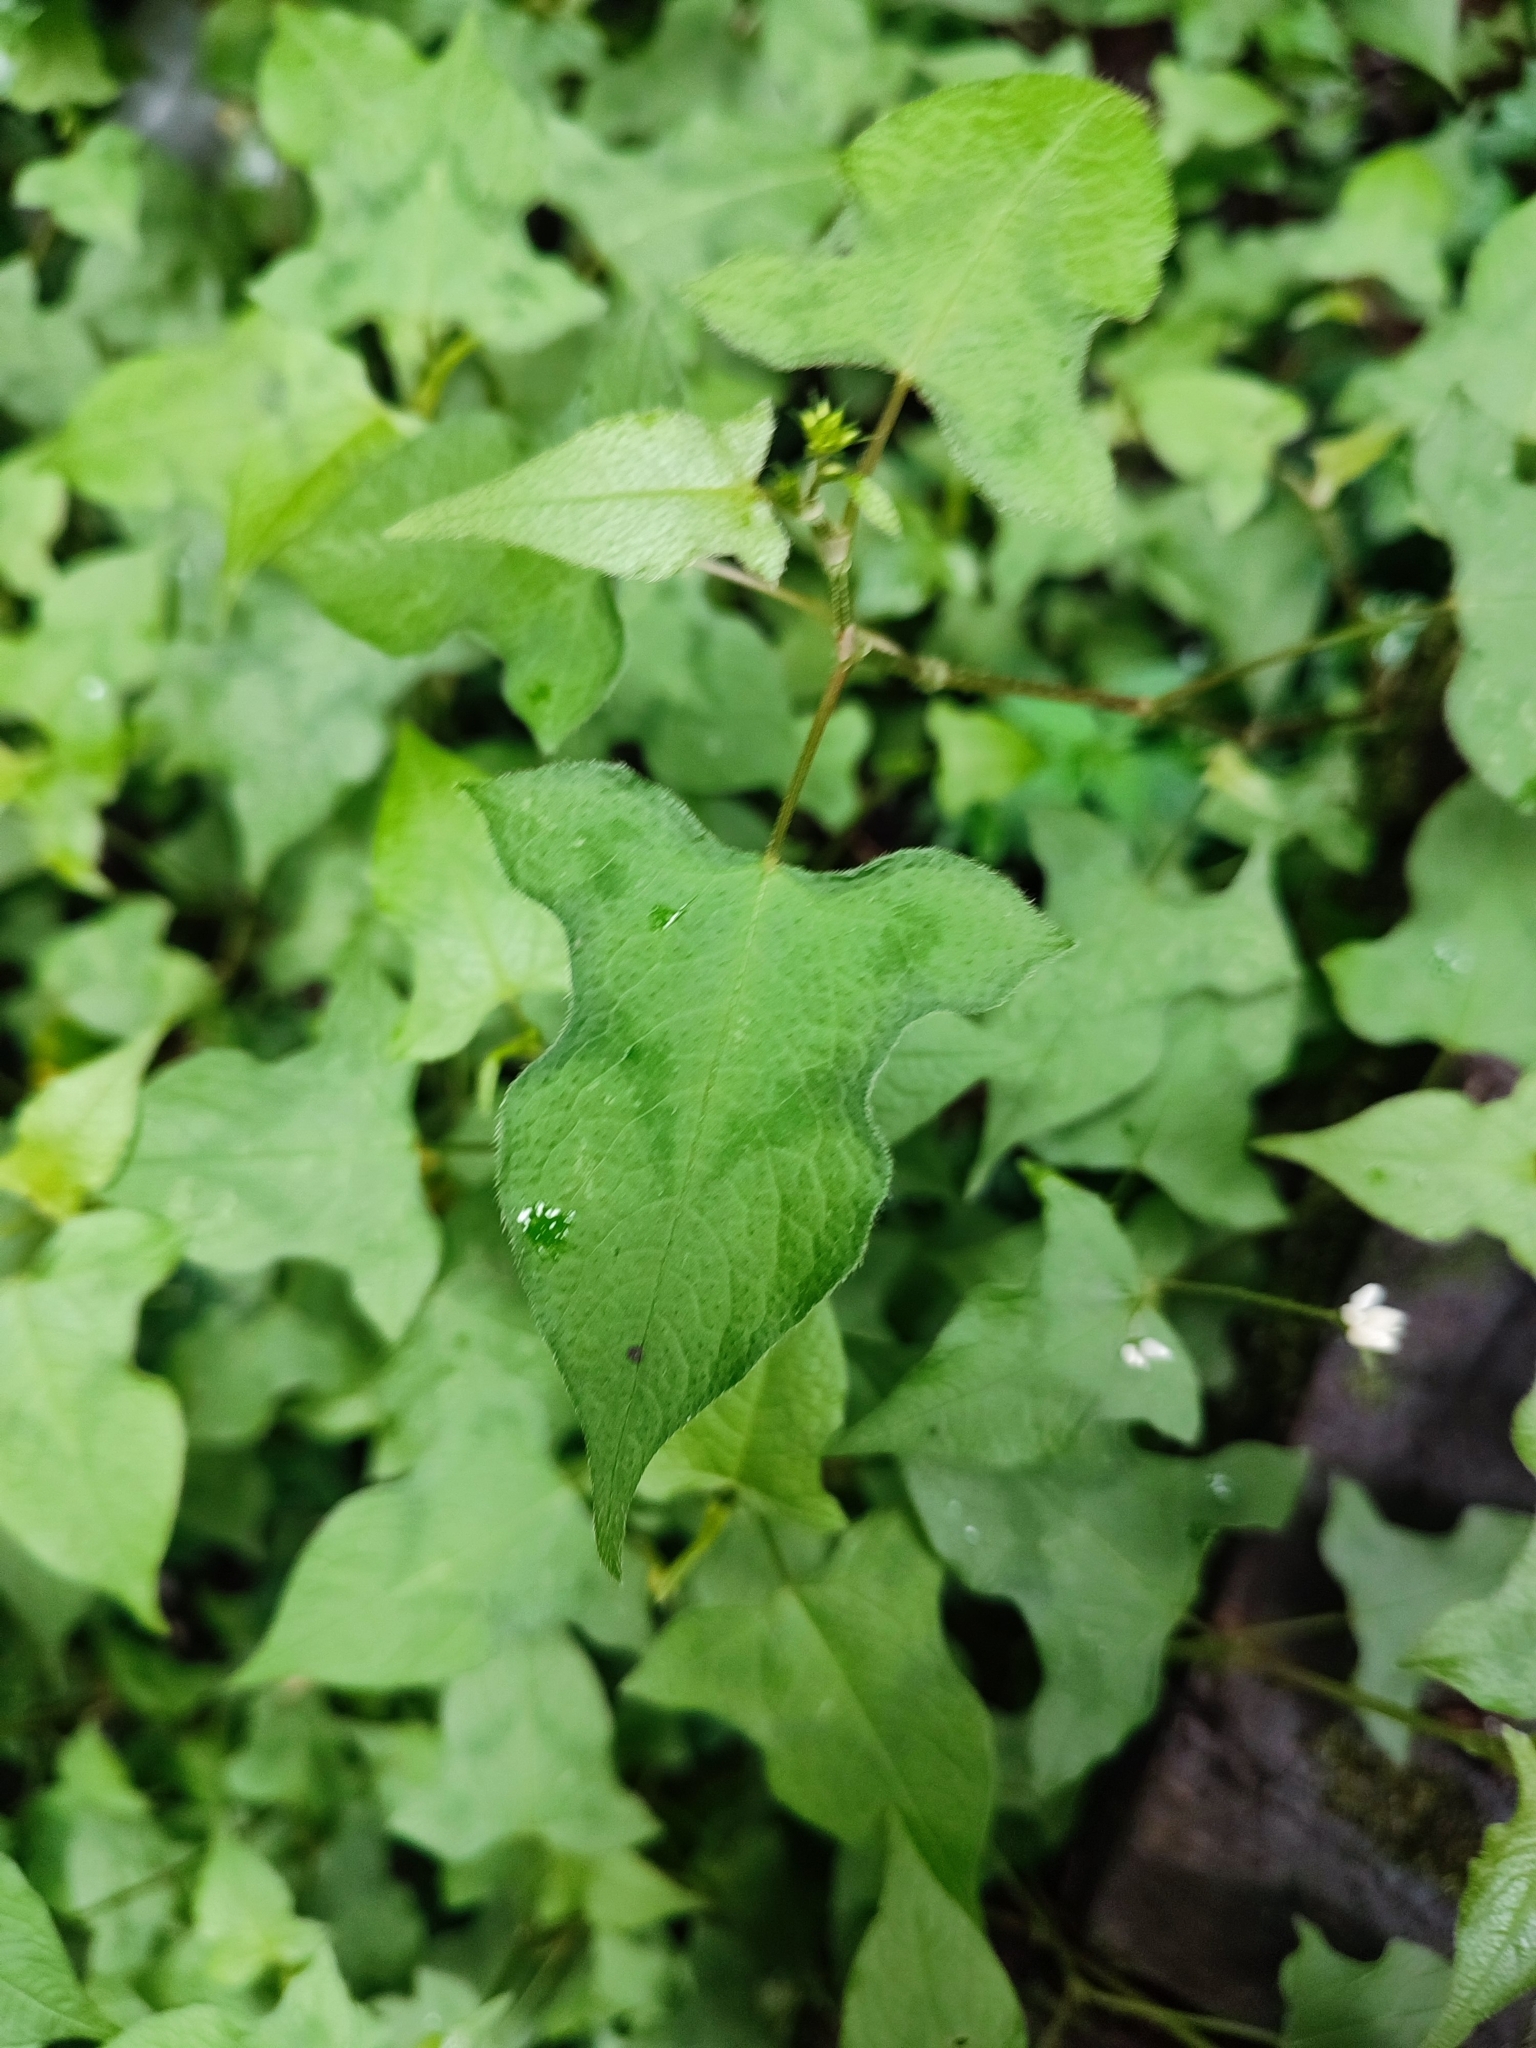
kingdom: Plantae
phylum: Tracheophyta
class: Magnoliopsida
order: Caryophyllales
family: Polygonaceae
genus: Persicaria
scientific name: Persicaria biconvexa
